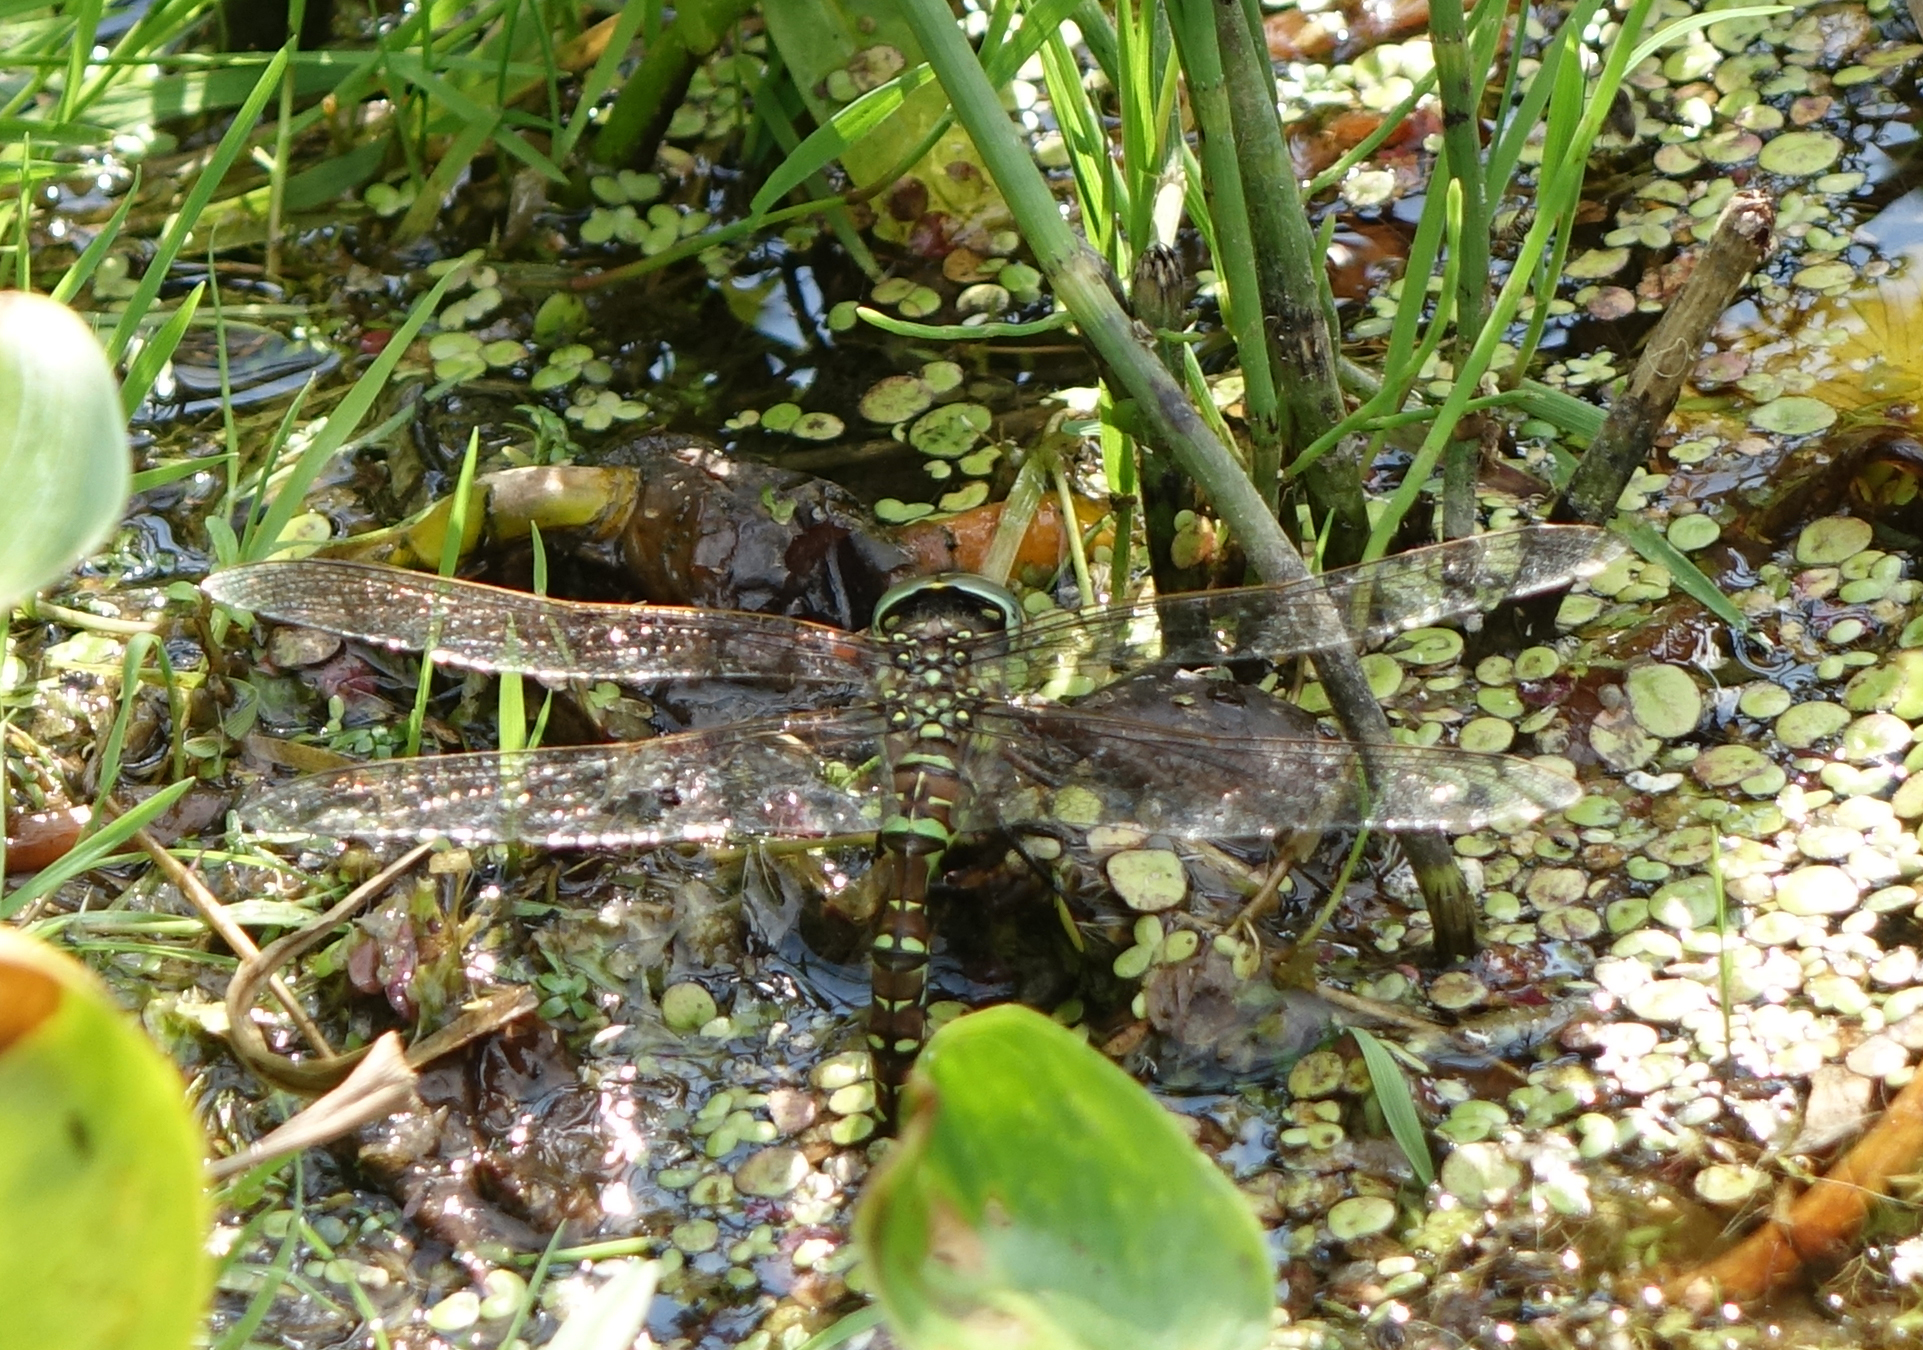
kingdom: Animalia
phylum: Arthropoda
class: Insecta
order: Odonata
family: Aeshnidae
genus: Aeshna
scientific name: Aeshna juncea
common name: Moorland hawker
